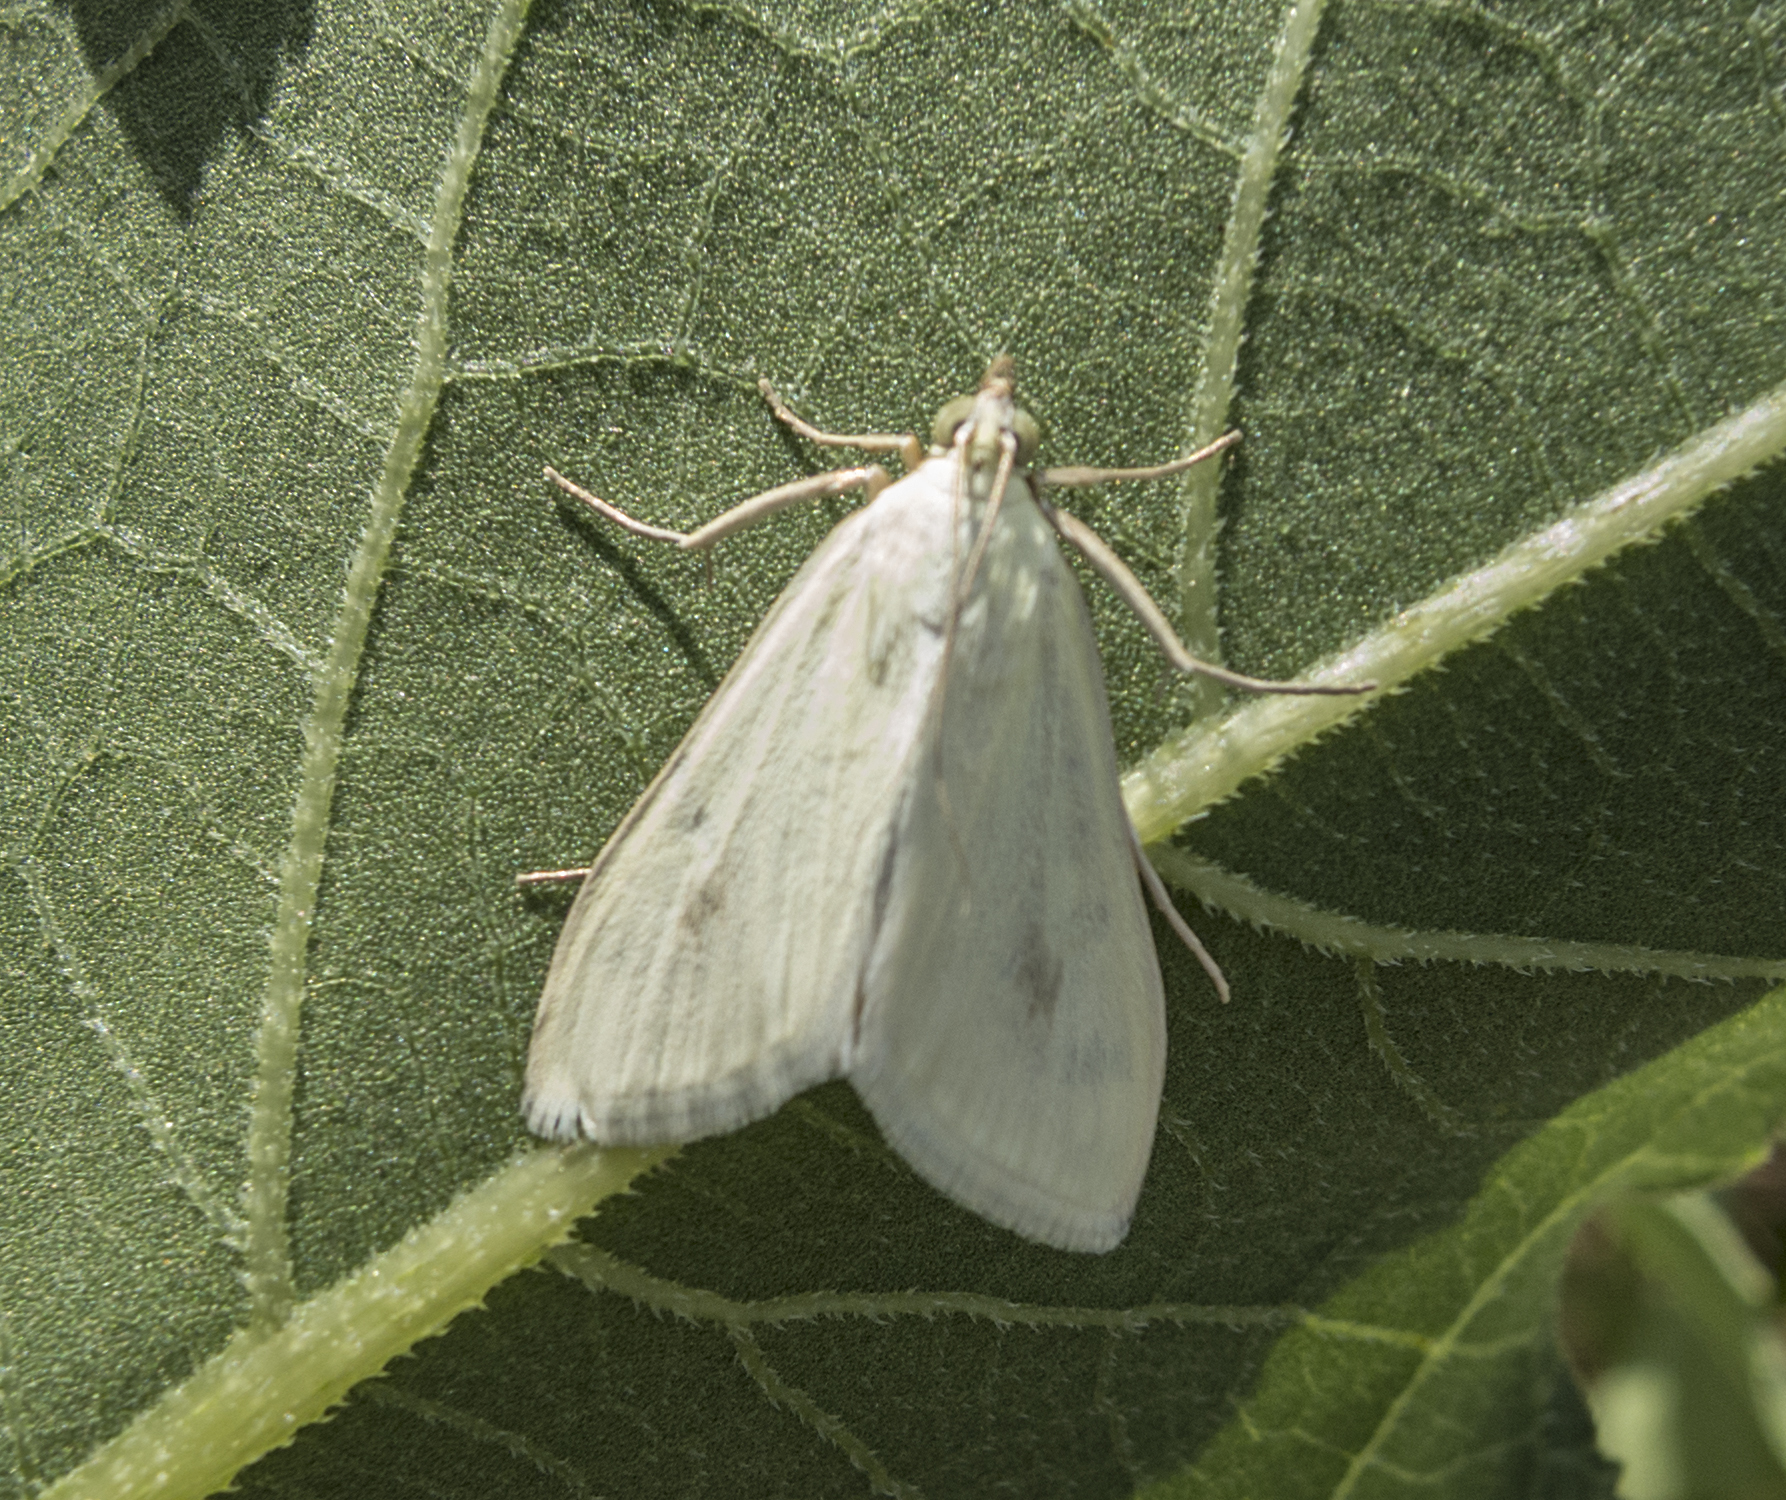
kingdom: Animalia
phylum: Arthropoda
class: Insecta
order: Lepidoptera
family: Crambidae
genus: Sitochroa
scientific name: Sitochroa palealis
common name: Greenish-yellow sitochroa moth
